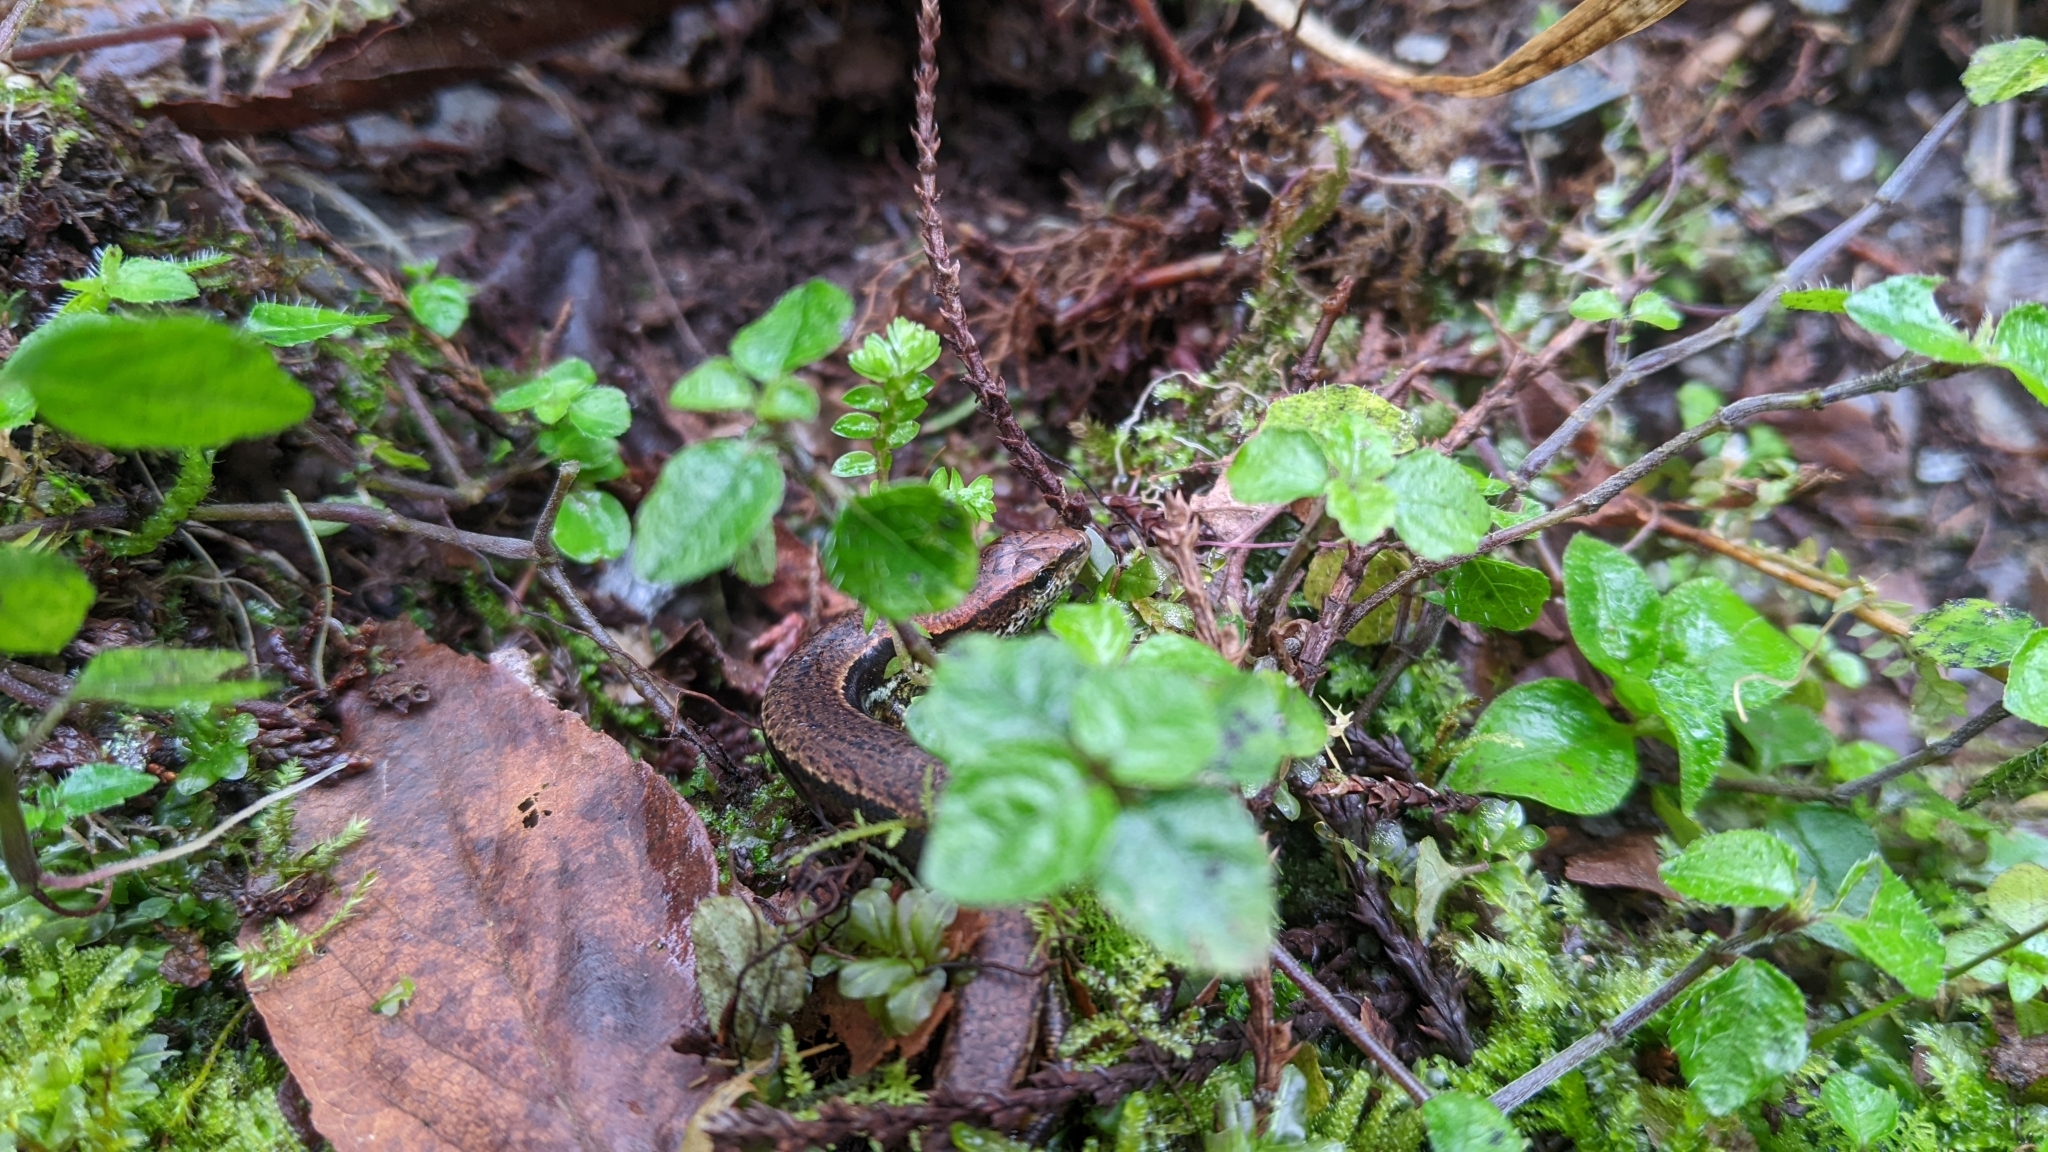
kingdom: Animalia
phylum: Chordata
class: Squamata
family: Scincidae
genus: Sphenomorphus
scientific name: Sphenomorphus indicus
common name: Himalayan forest skink
